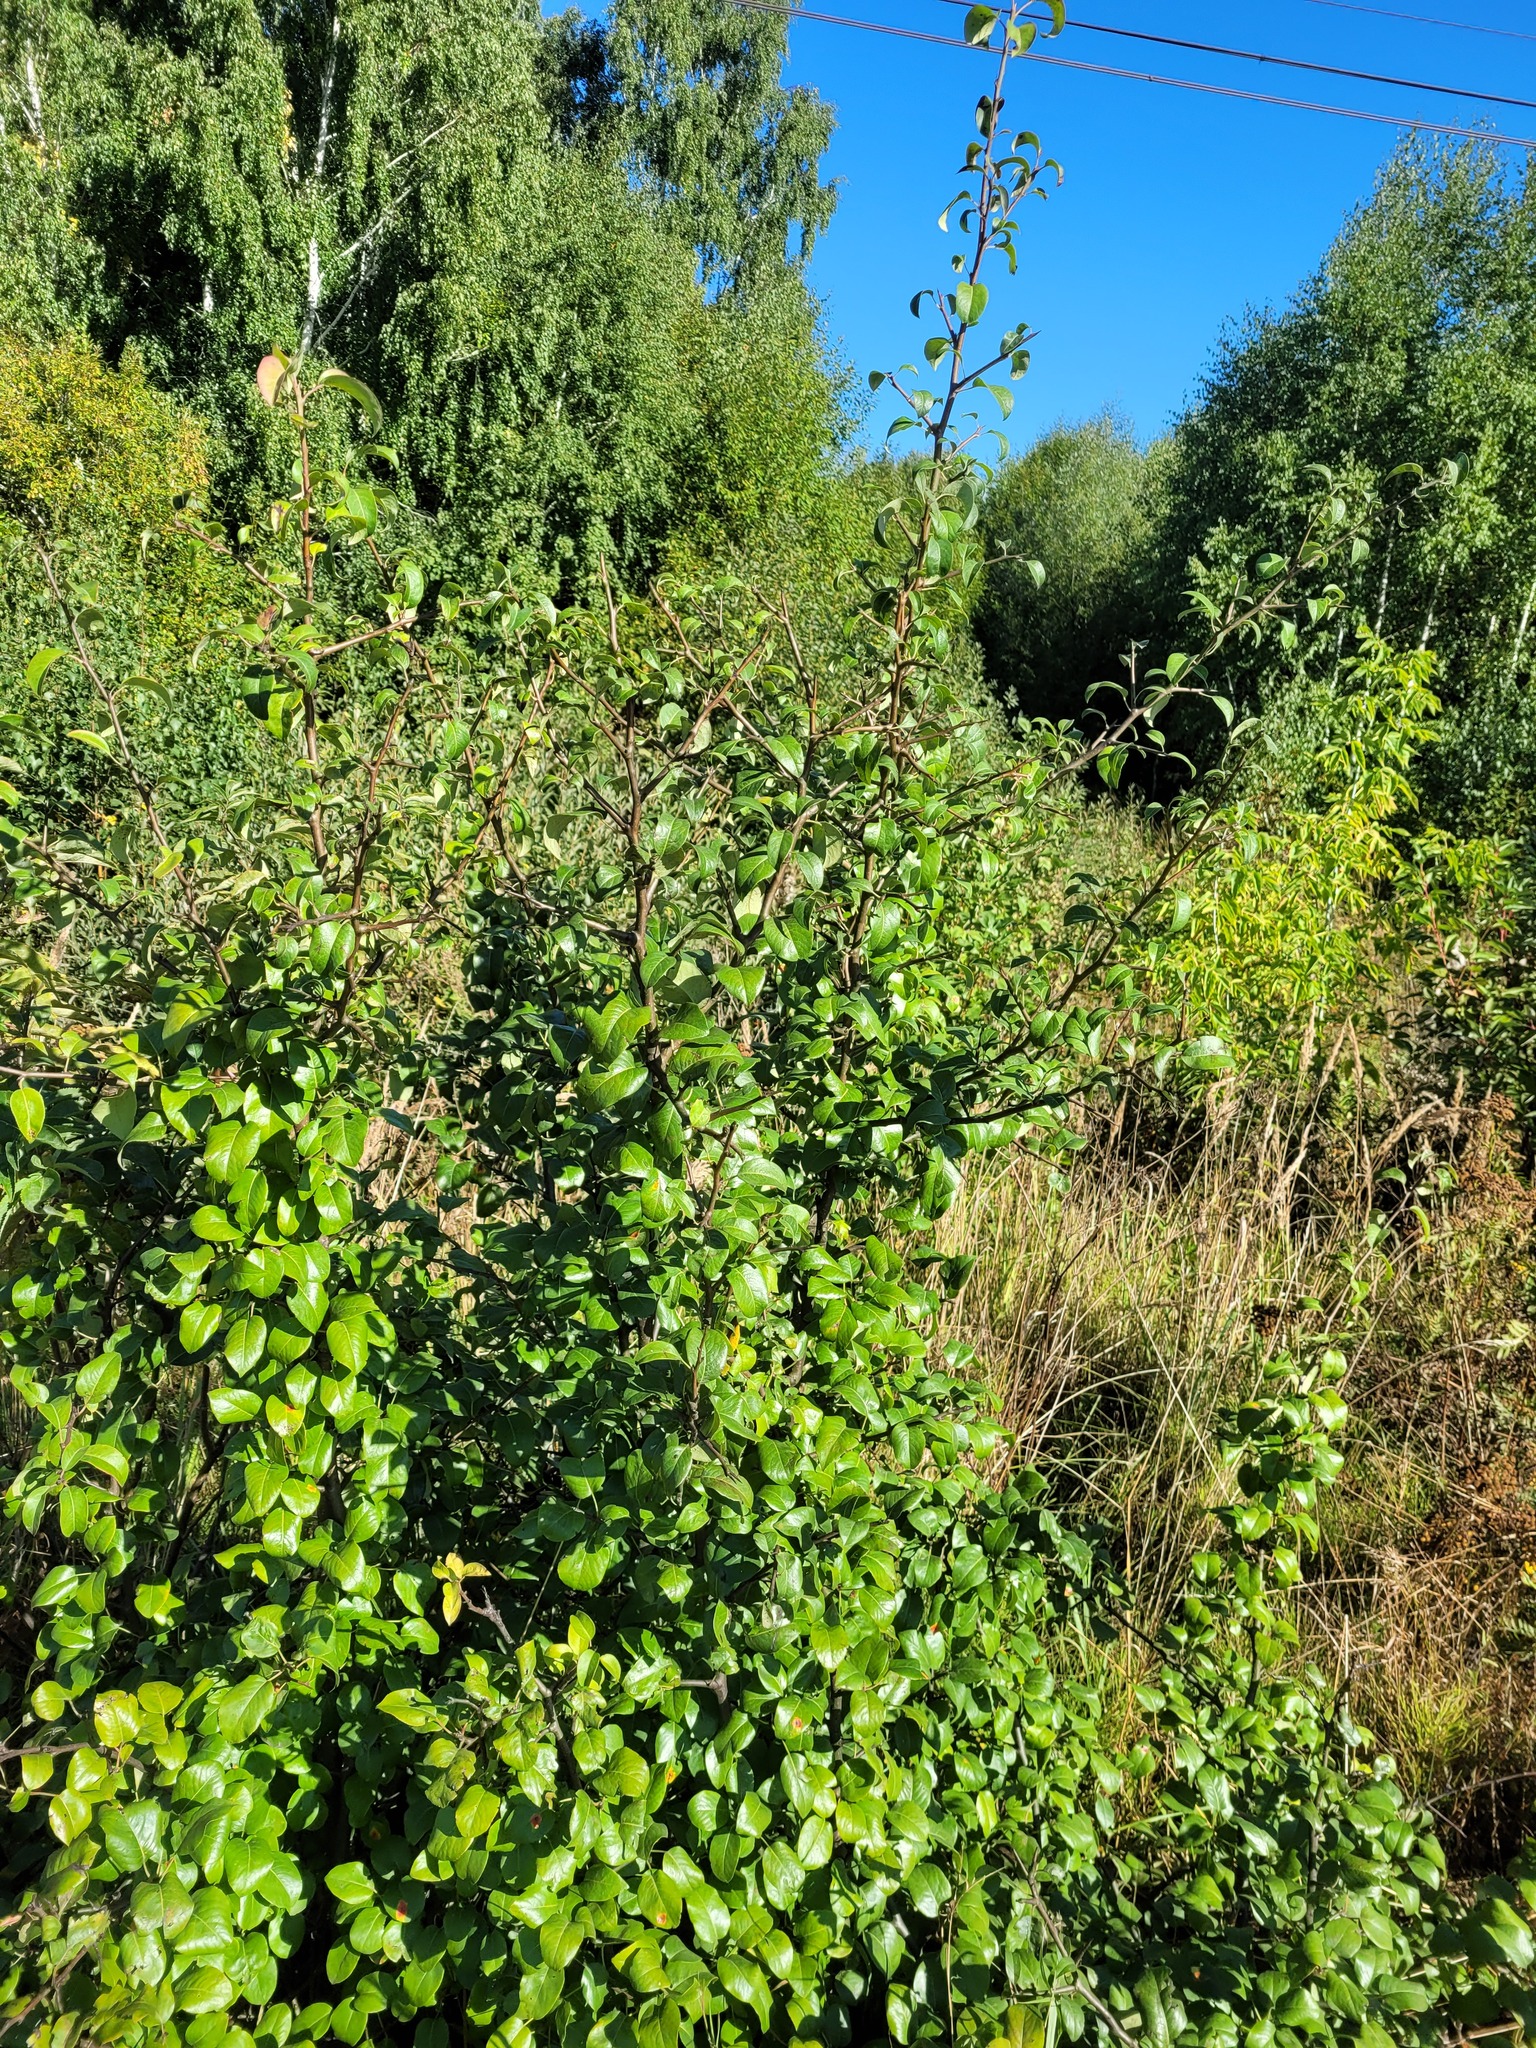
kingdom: Plantae
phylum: Tracheophyta
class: Magnoliopsida
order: Rosales
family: Rosaceae
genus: Pyrus
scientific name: Pyrus communis
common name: Pear
